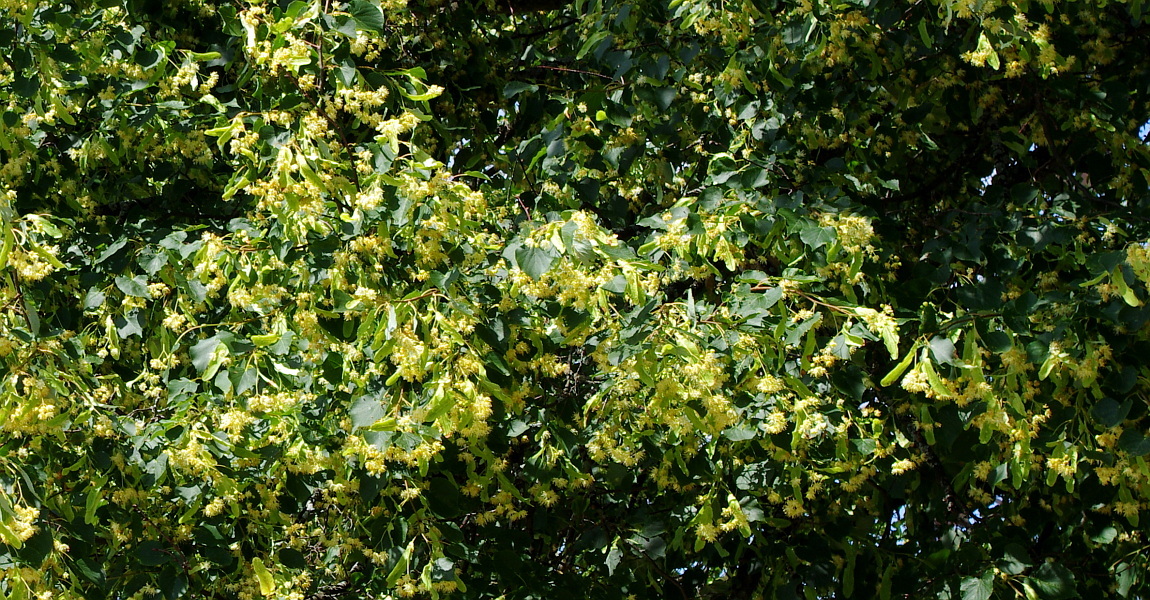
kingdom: Plantae
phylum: Tracheophyta
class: Magnoliopsida
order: Malvales
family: Malvaceae
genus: Tilia
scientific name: Tilia cordata
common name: Small-leaved lime
